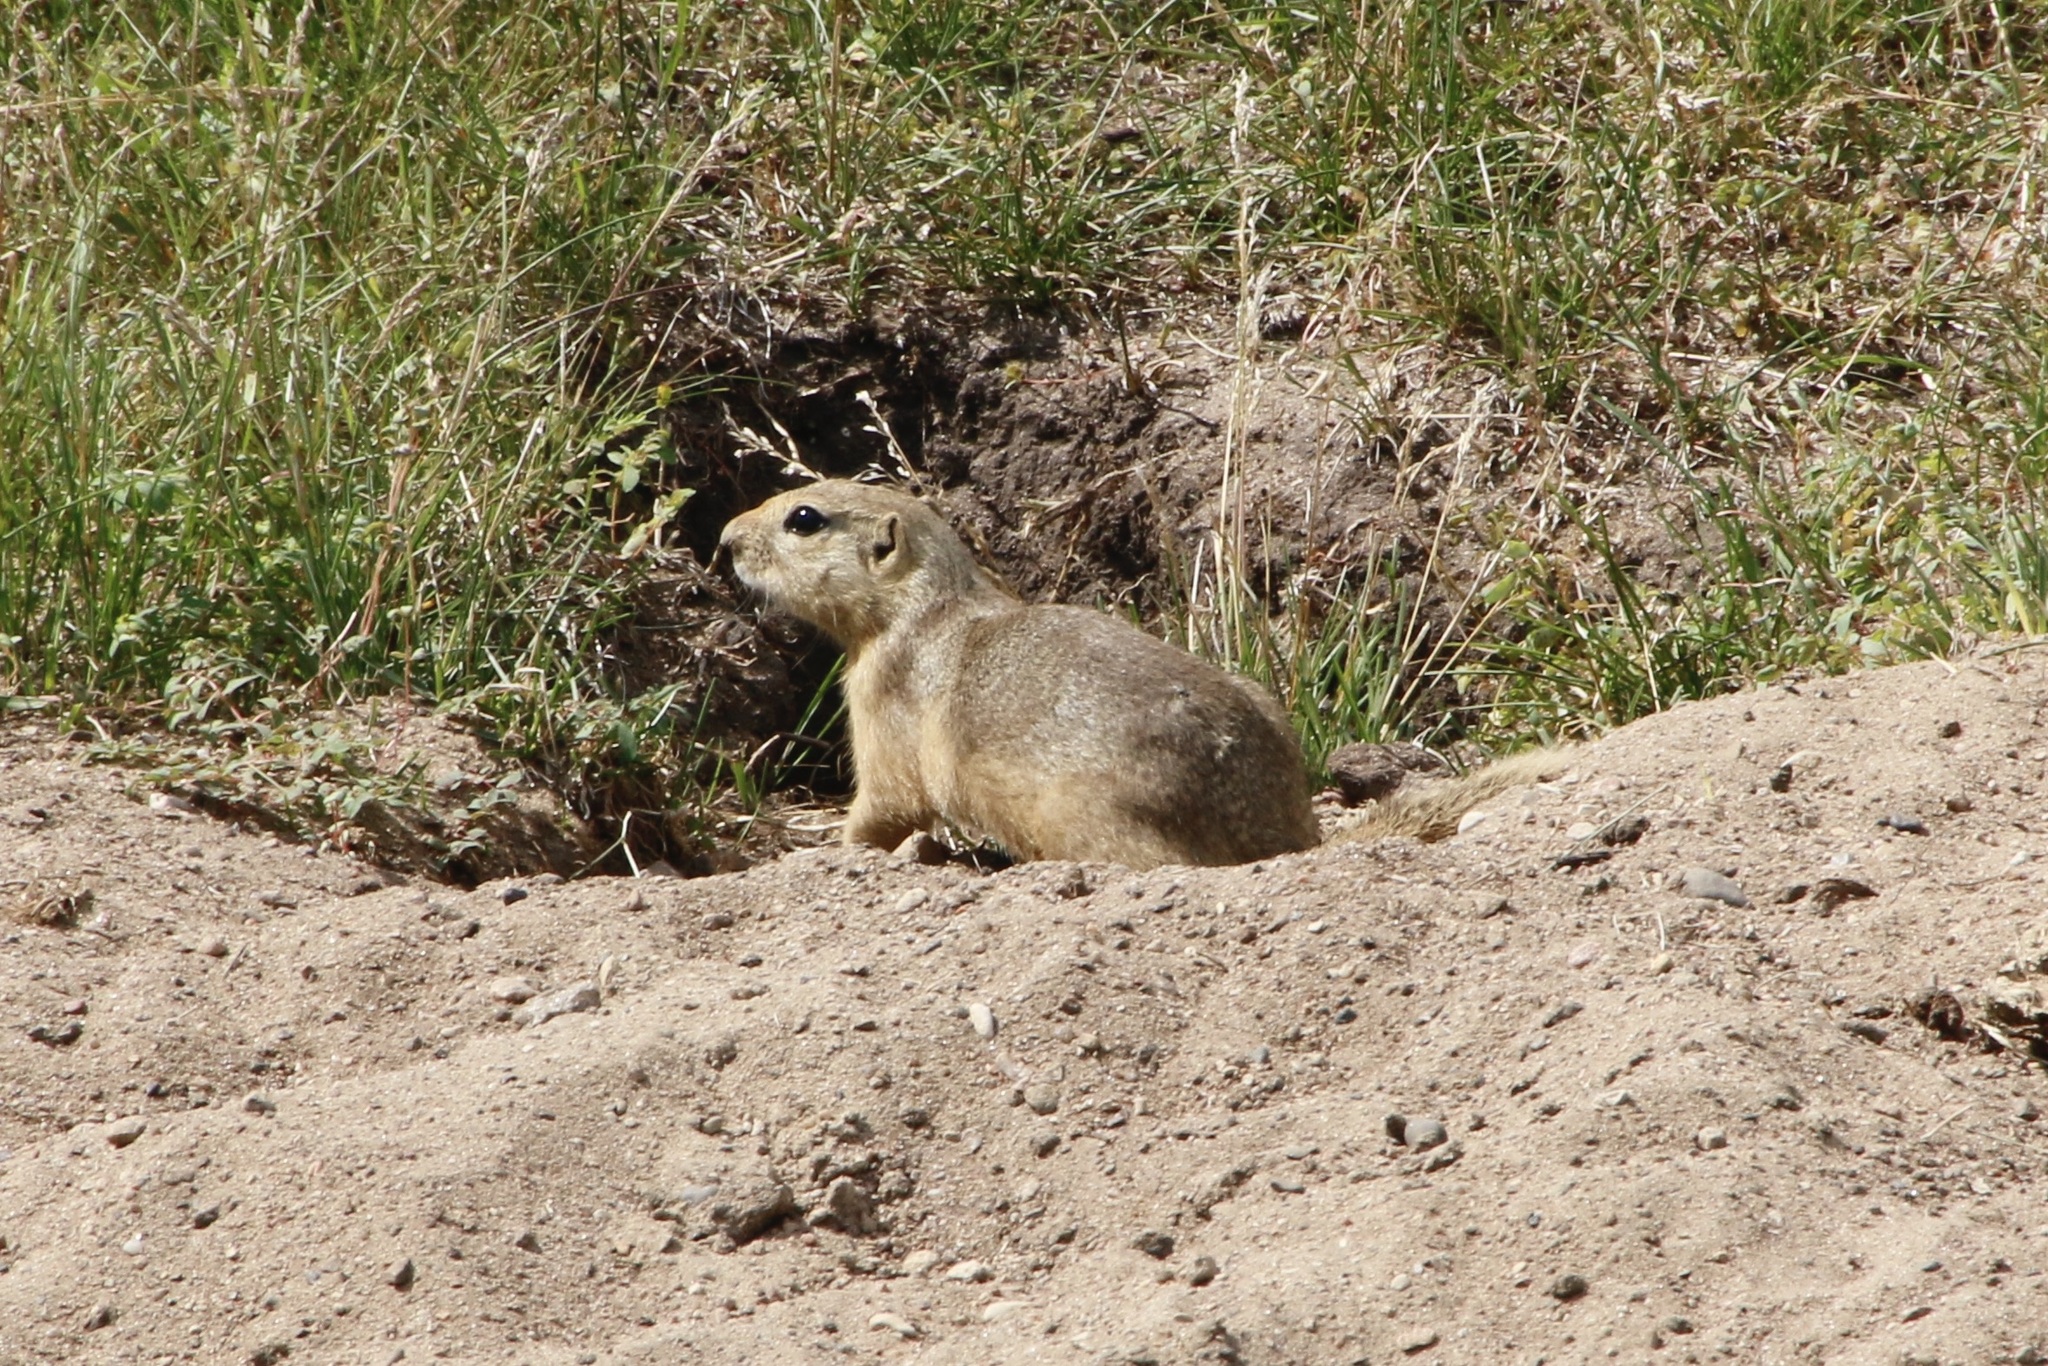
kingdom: Animalia
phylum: Chordata
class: Mammalia
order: Rodentia
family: Sciuridae
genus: Urocitellus
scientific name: Urocitellus richardsonii
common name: Richardson's ground squirrel
